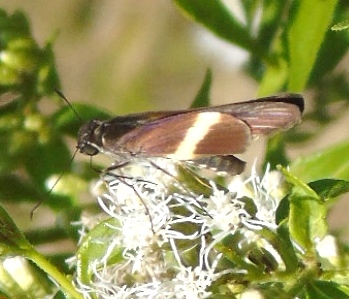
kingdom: Animalia
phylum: Arthropoda
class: Insecta
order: Lepidoptera
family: Hesperiidae
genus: Zenis
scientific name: Zenis jebus
